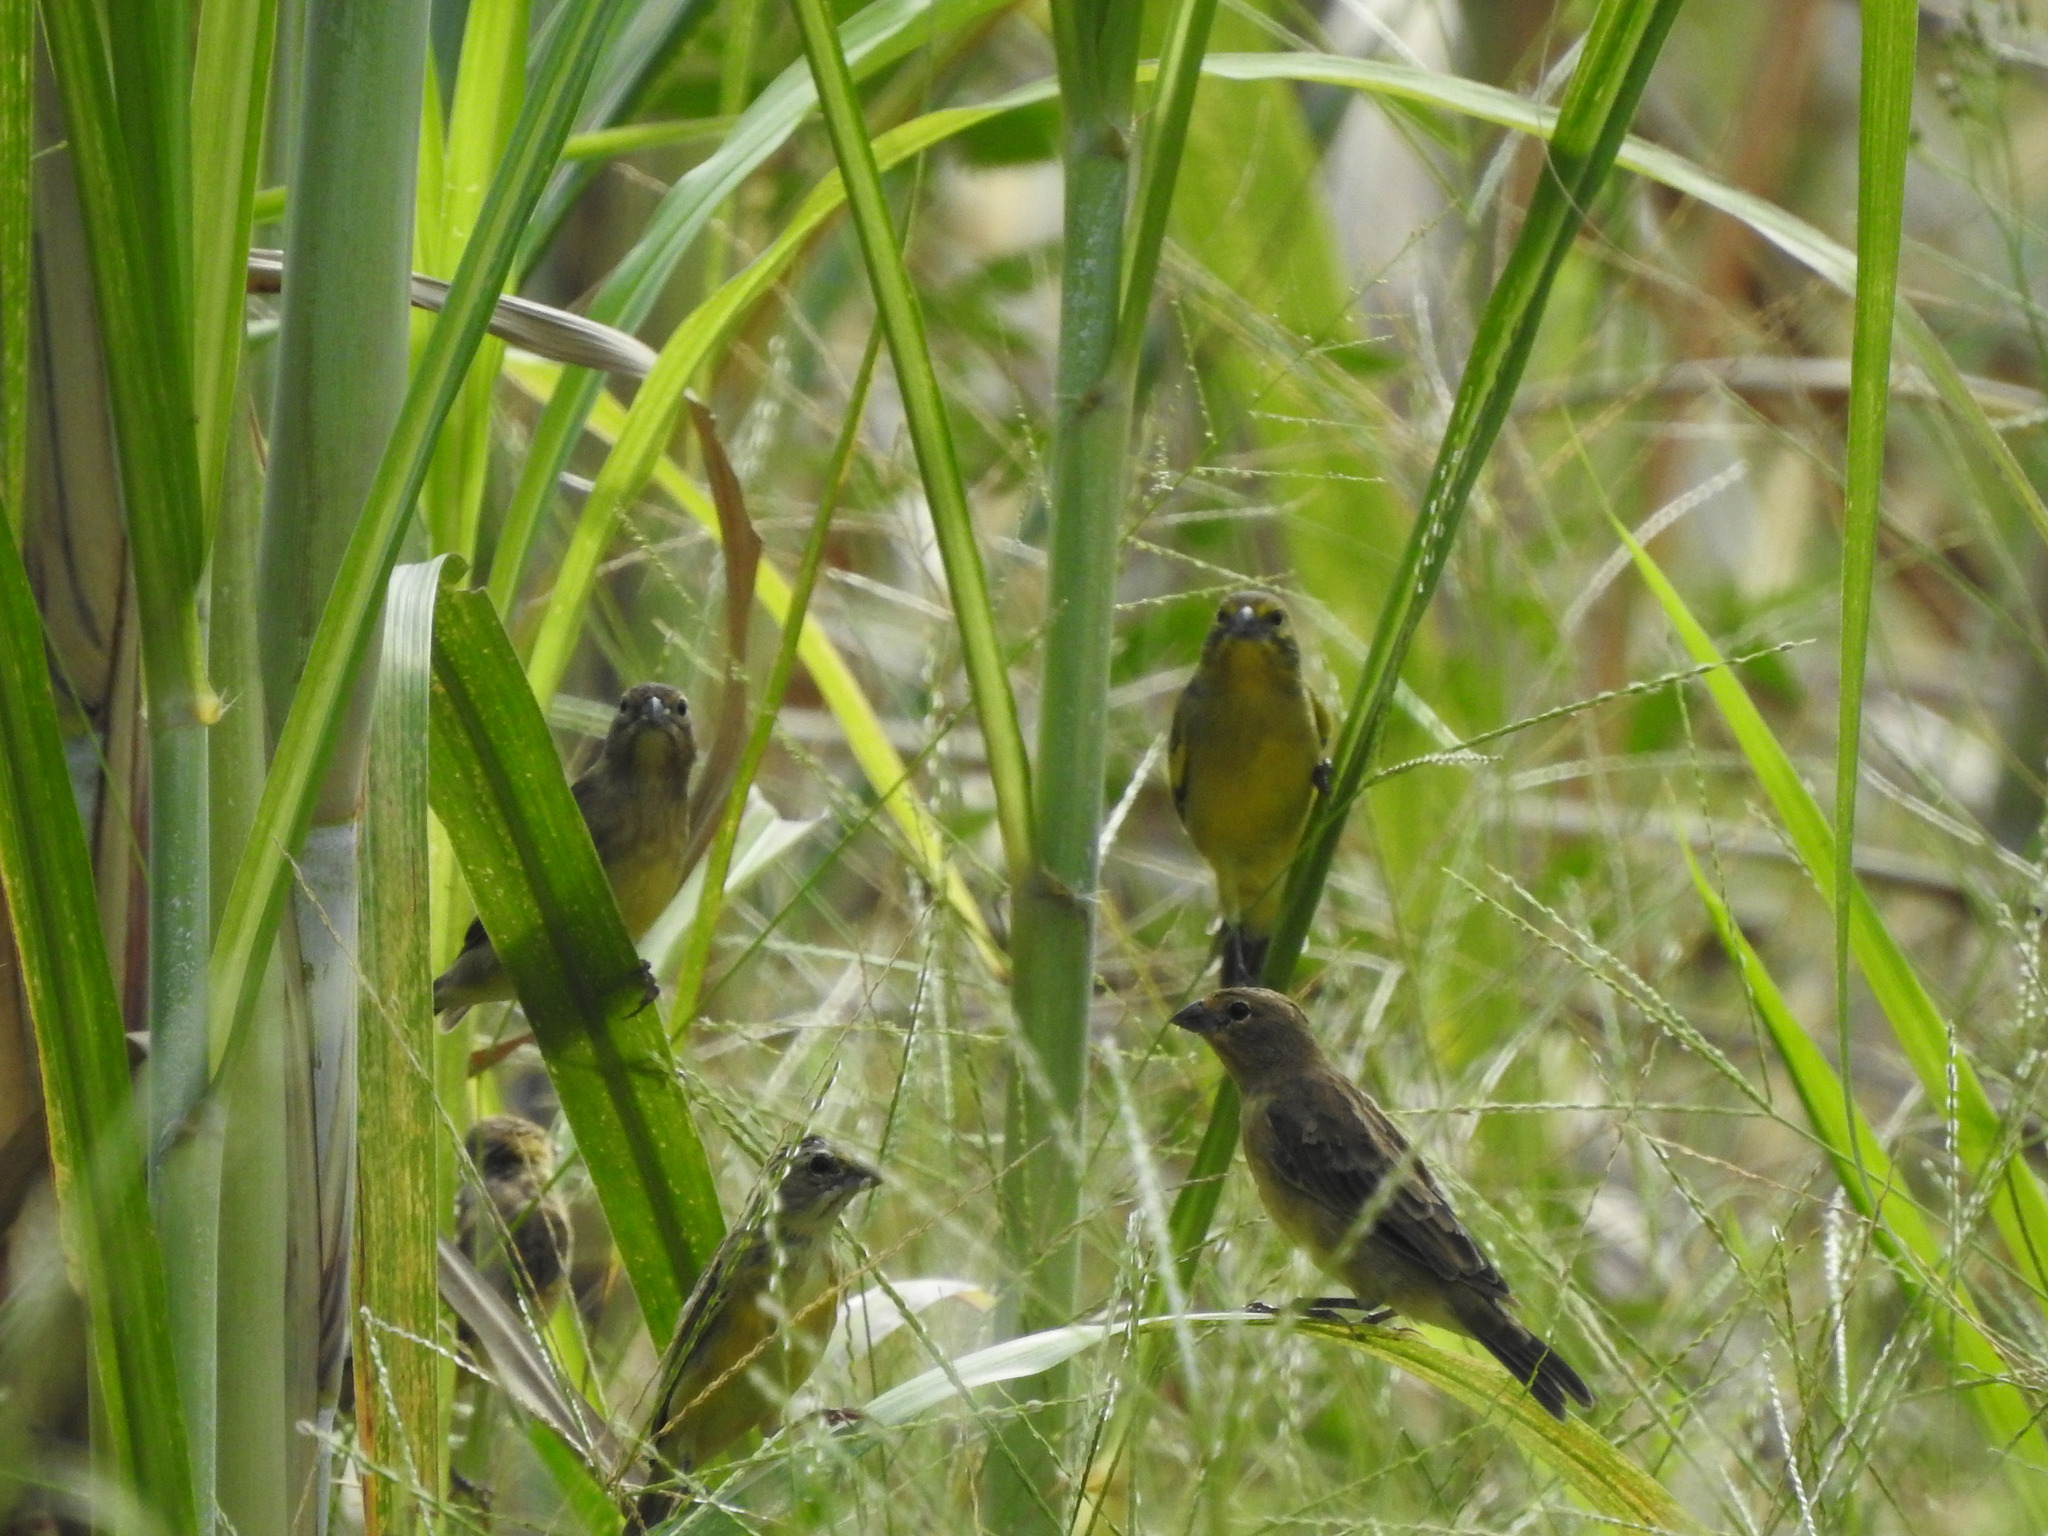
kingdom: Animalia
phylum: Chordata
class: Aves
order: Passeriformes
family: Thraupidae
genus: Sicalis
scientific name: Sicalis luteola
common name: Grassland yellow-finch
